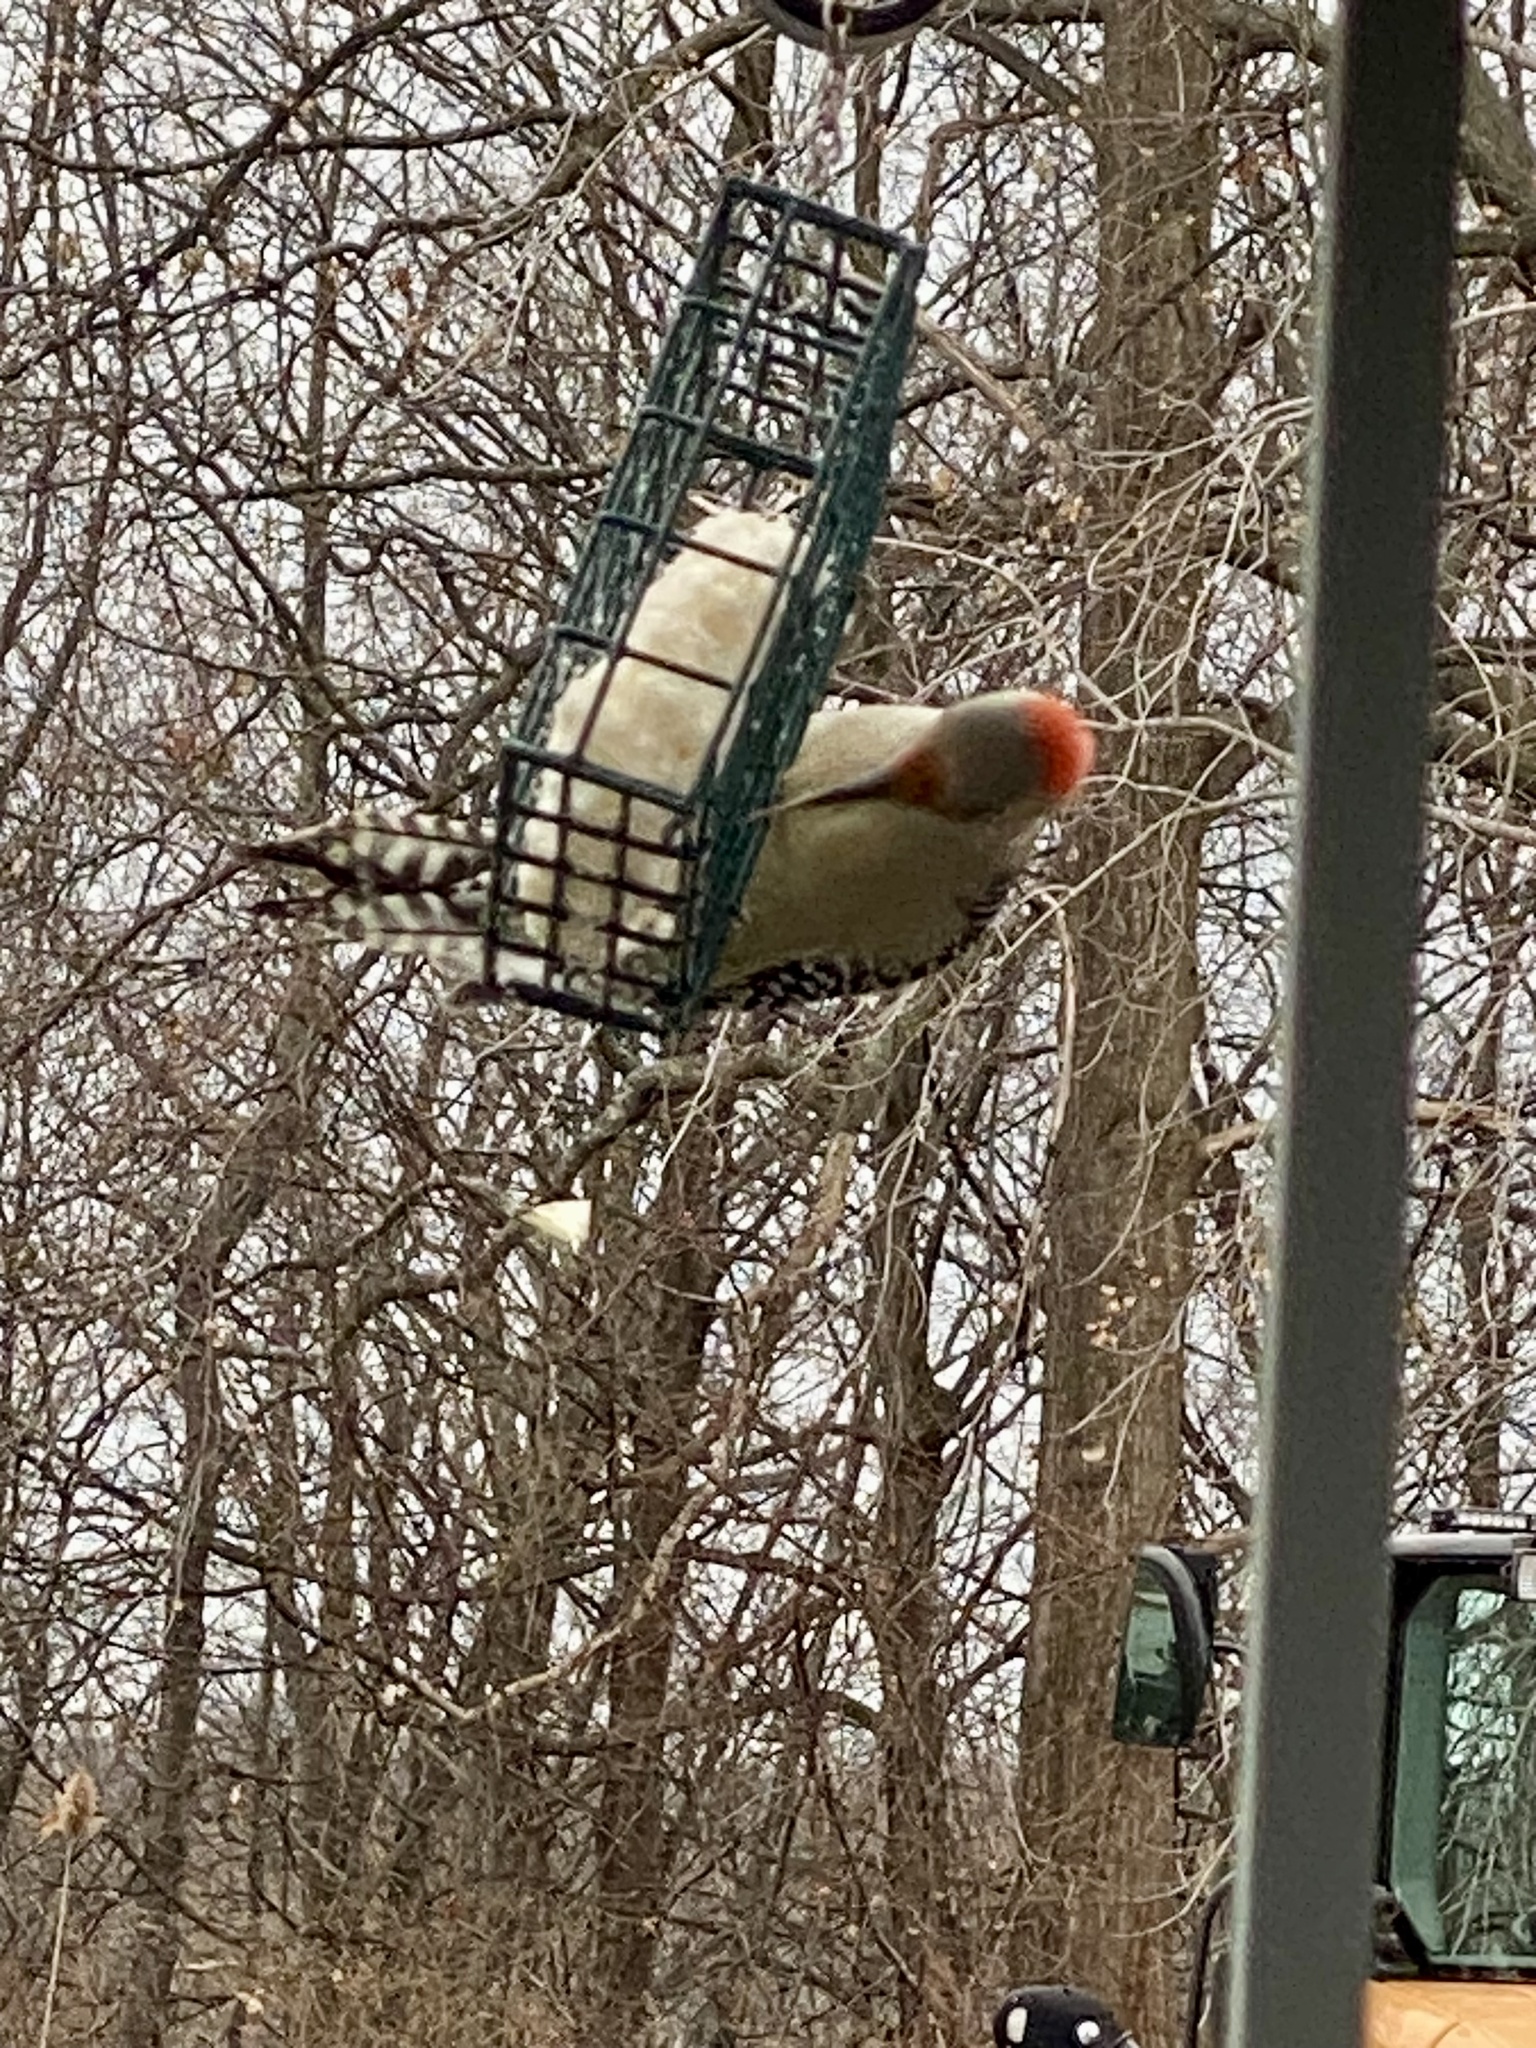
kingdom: Animalia
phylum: Chordata
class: Aves
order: Piciformes
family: Picidae
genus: Melanerpes
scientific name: Melanerpes carolinus
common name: Red-bellied woodpecker
